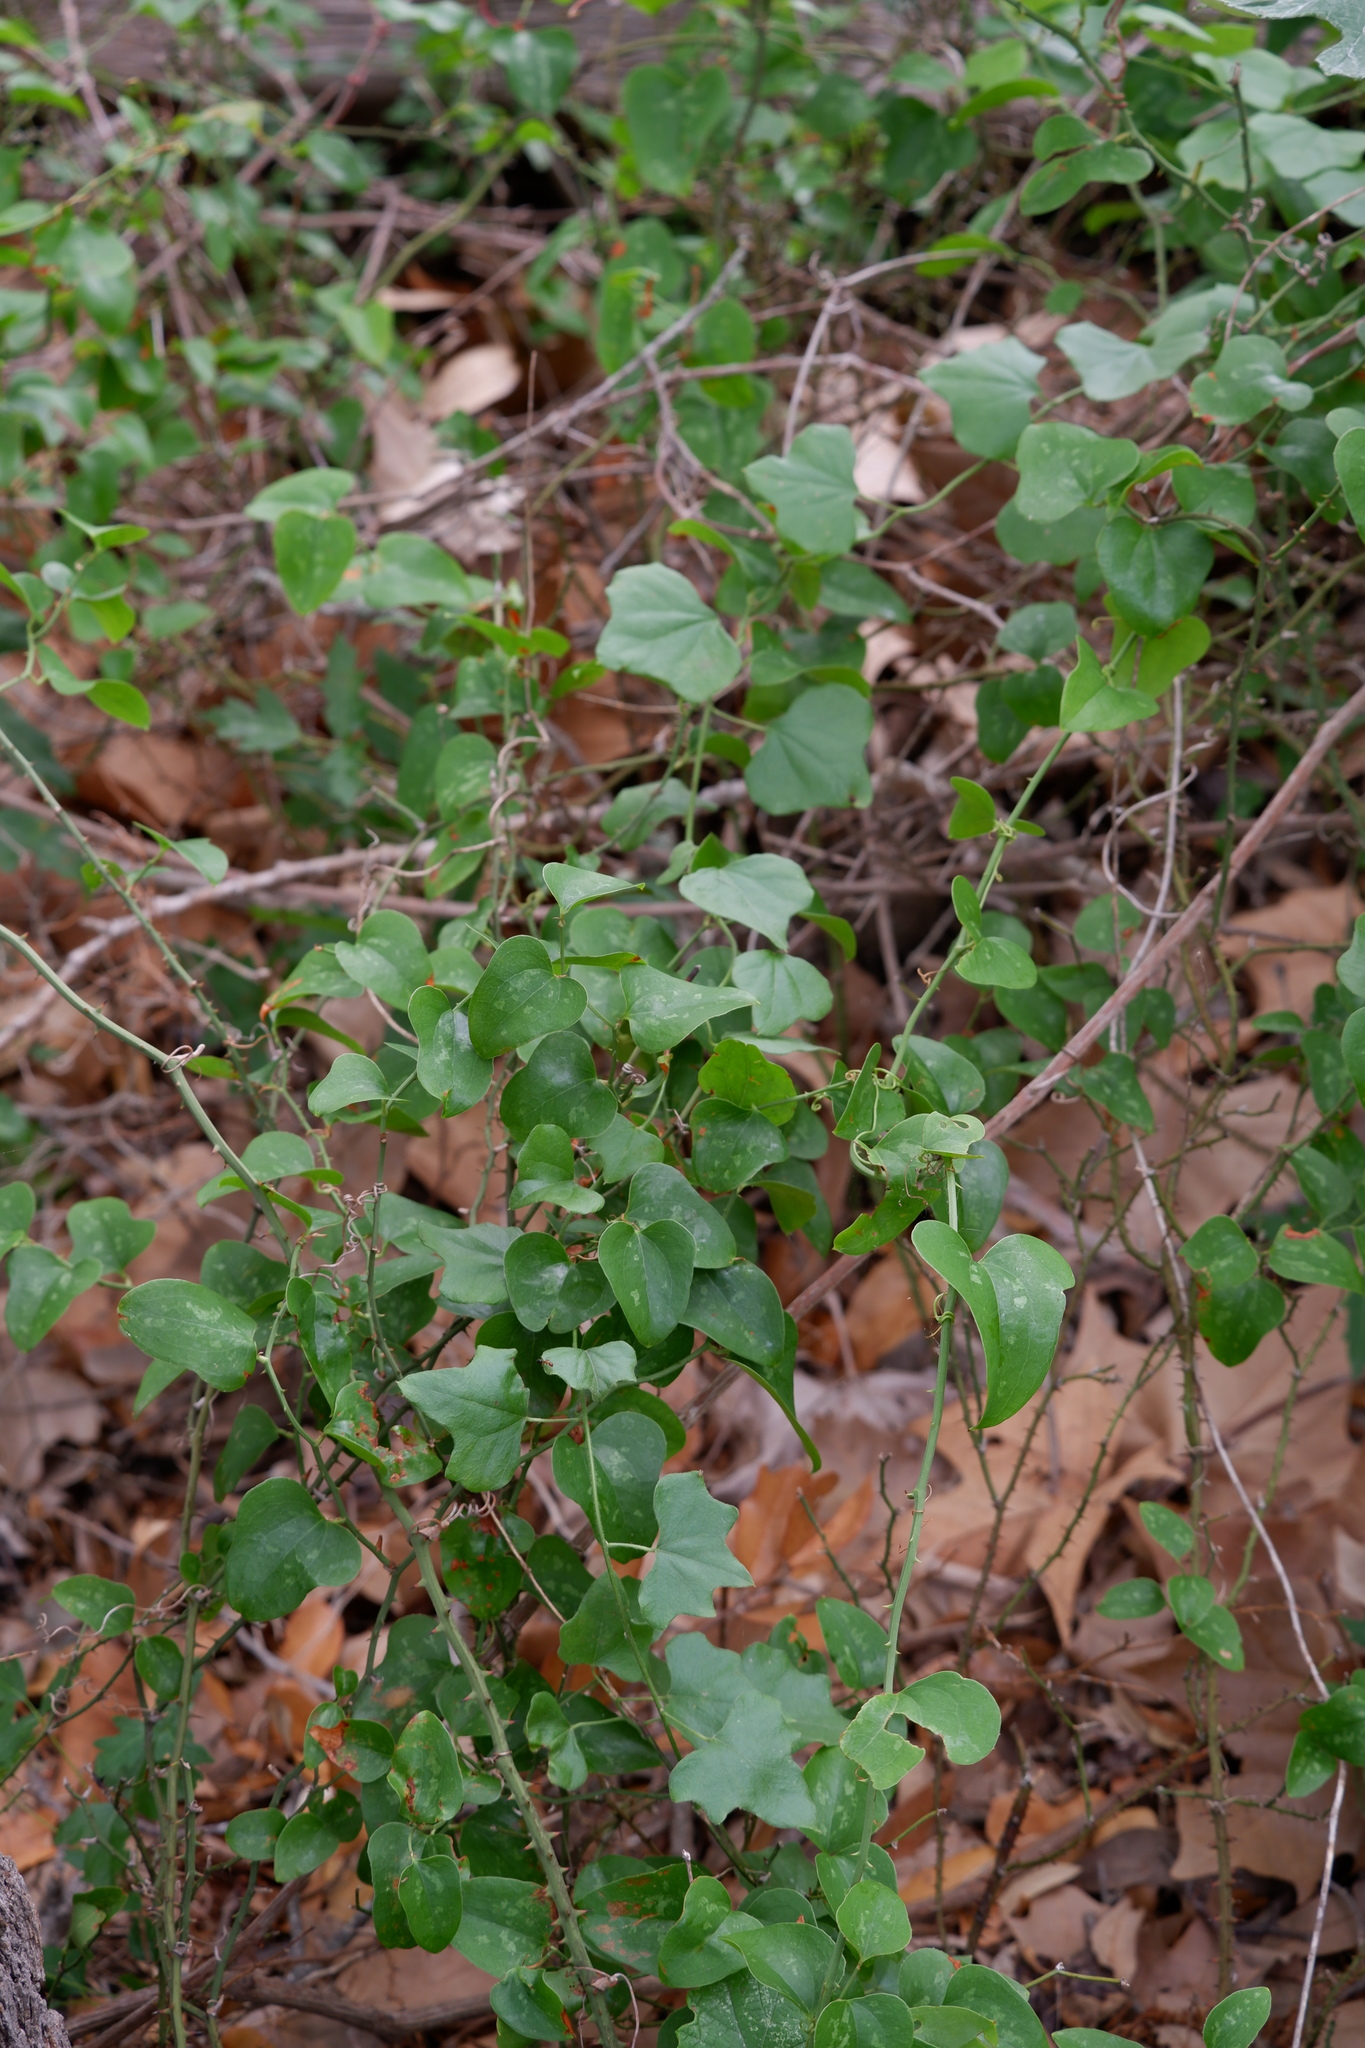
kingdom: Plantae
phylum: Tracheophyta
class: Magnoliopsida
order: Ranunculales
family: Menispermaceae
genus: Cocculus
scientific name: Cocculus carolinus
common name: Carolina moonseed
